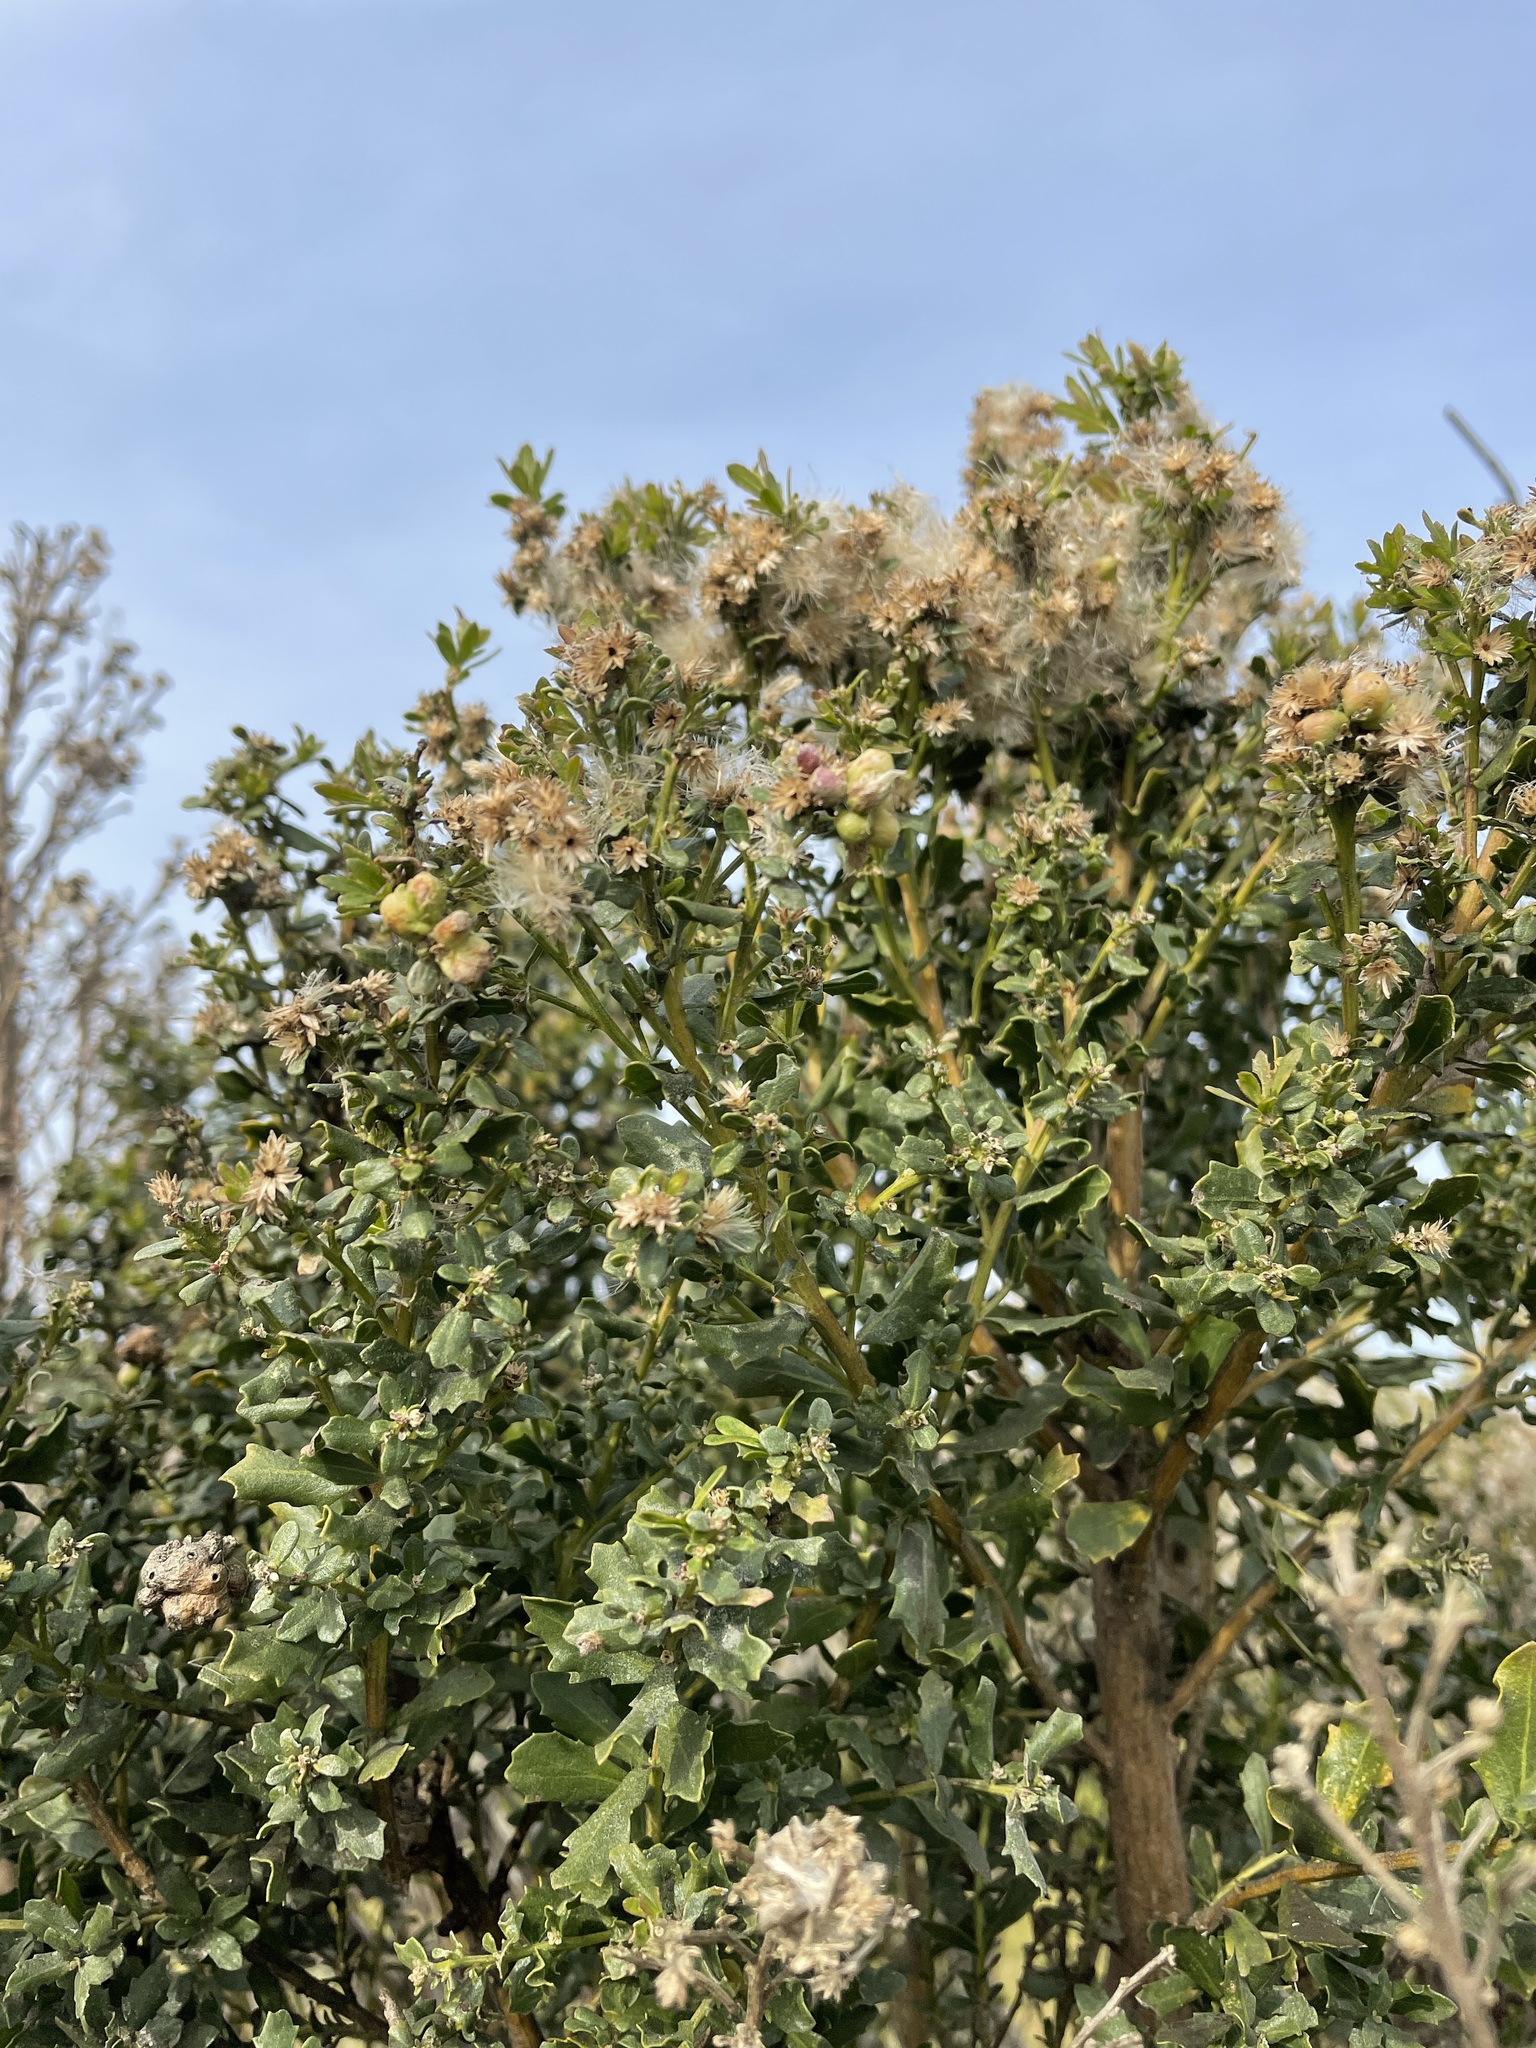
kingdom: Plantae
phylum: Tracheophyta
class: Magnoliopsida
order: Asterales
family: Asteraceae
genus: Baccharis
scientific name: Baccharis pilularis
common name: Coyotebrush
